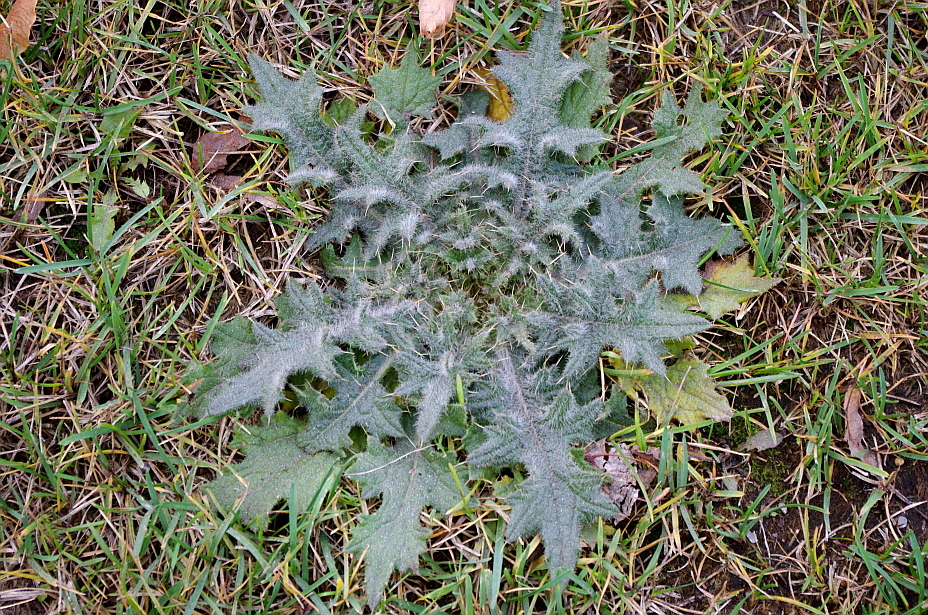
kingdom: Plantae
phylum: Tracheophyta
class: Magnoliopsida
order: Asterales
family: Asteraceae
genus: Cirsium
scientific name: Cirsium vulgare
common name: Bull thistle
